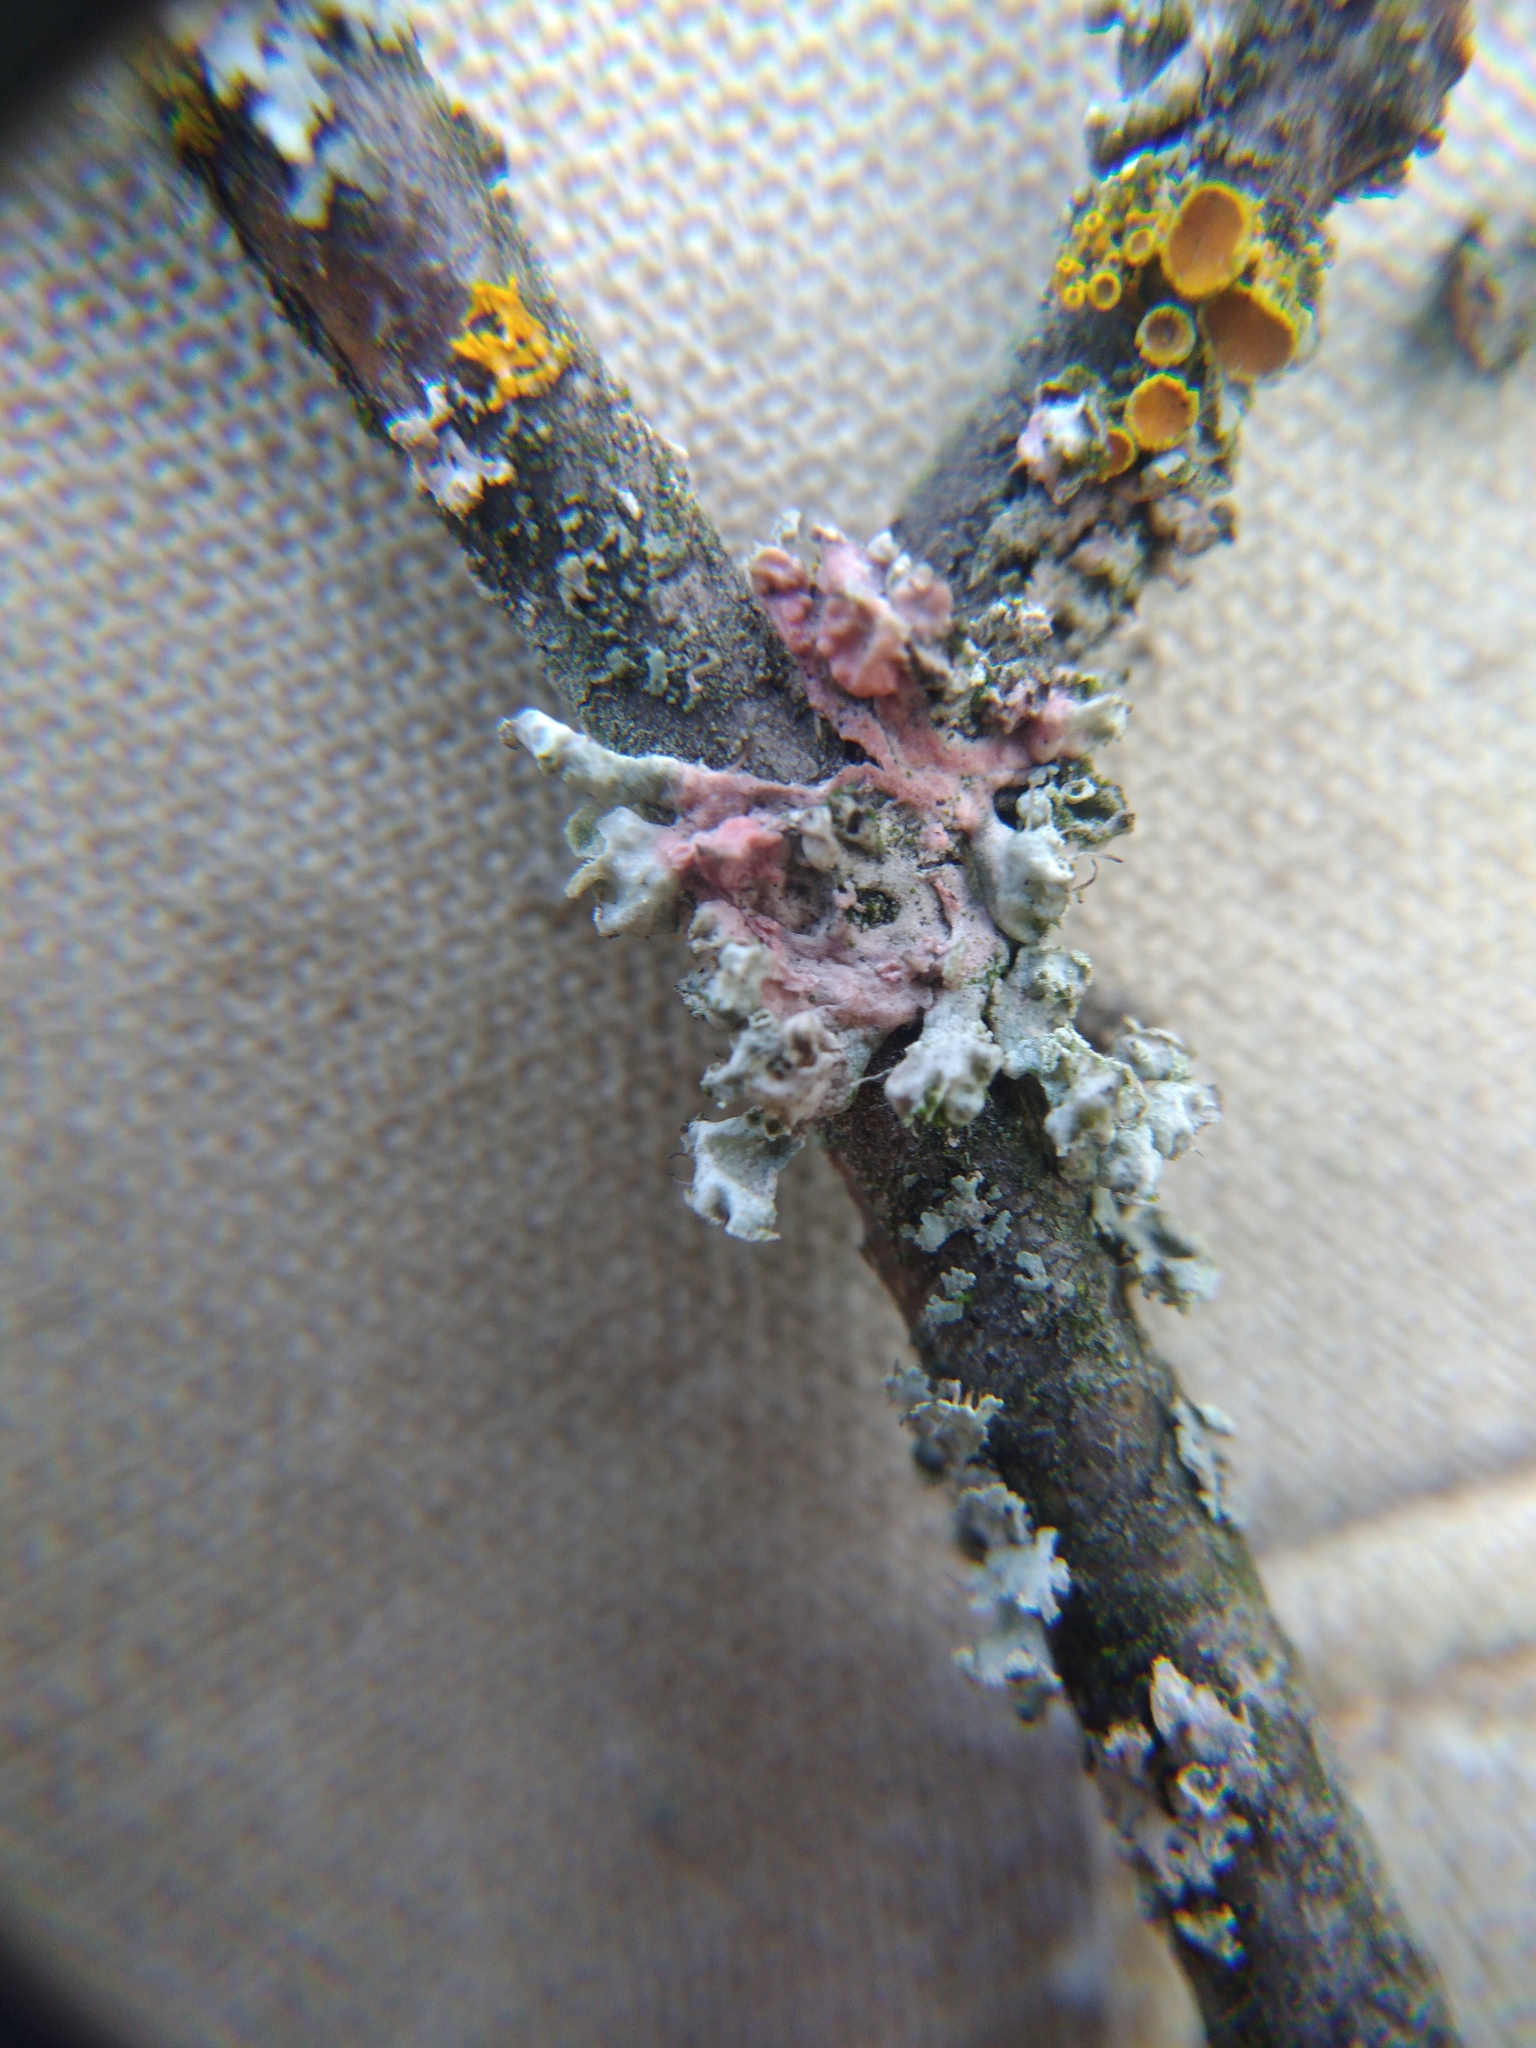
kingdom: Fungi
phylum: Basidiomycota
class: Agaricomycetes
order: Corticiales
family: Corticiaceae
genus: Laetisaria
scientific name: Laetisaria lichenicola
